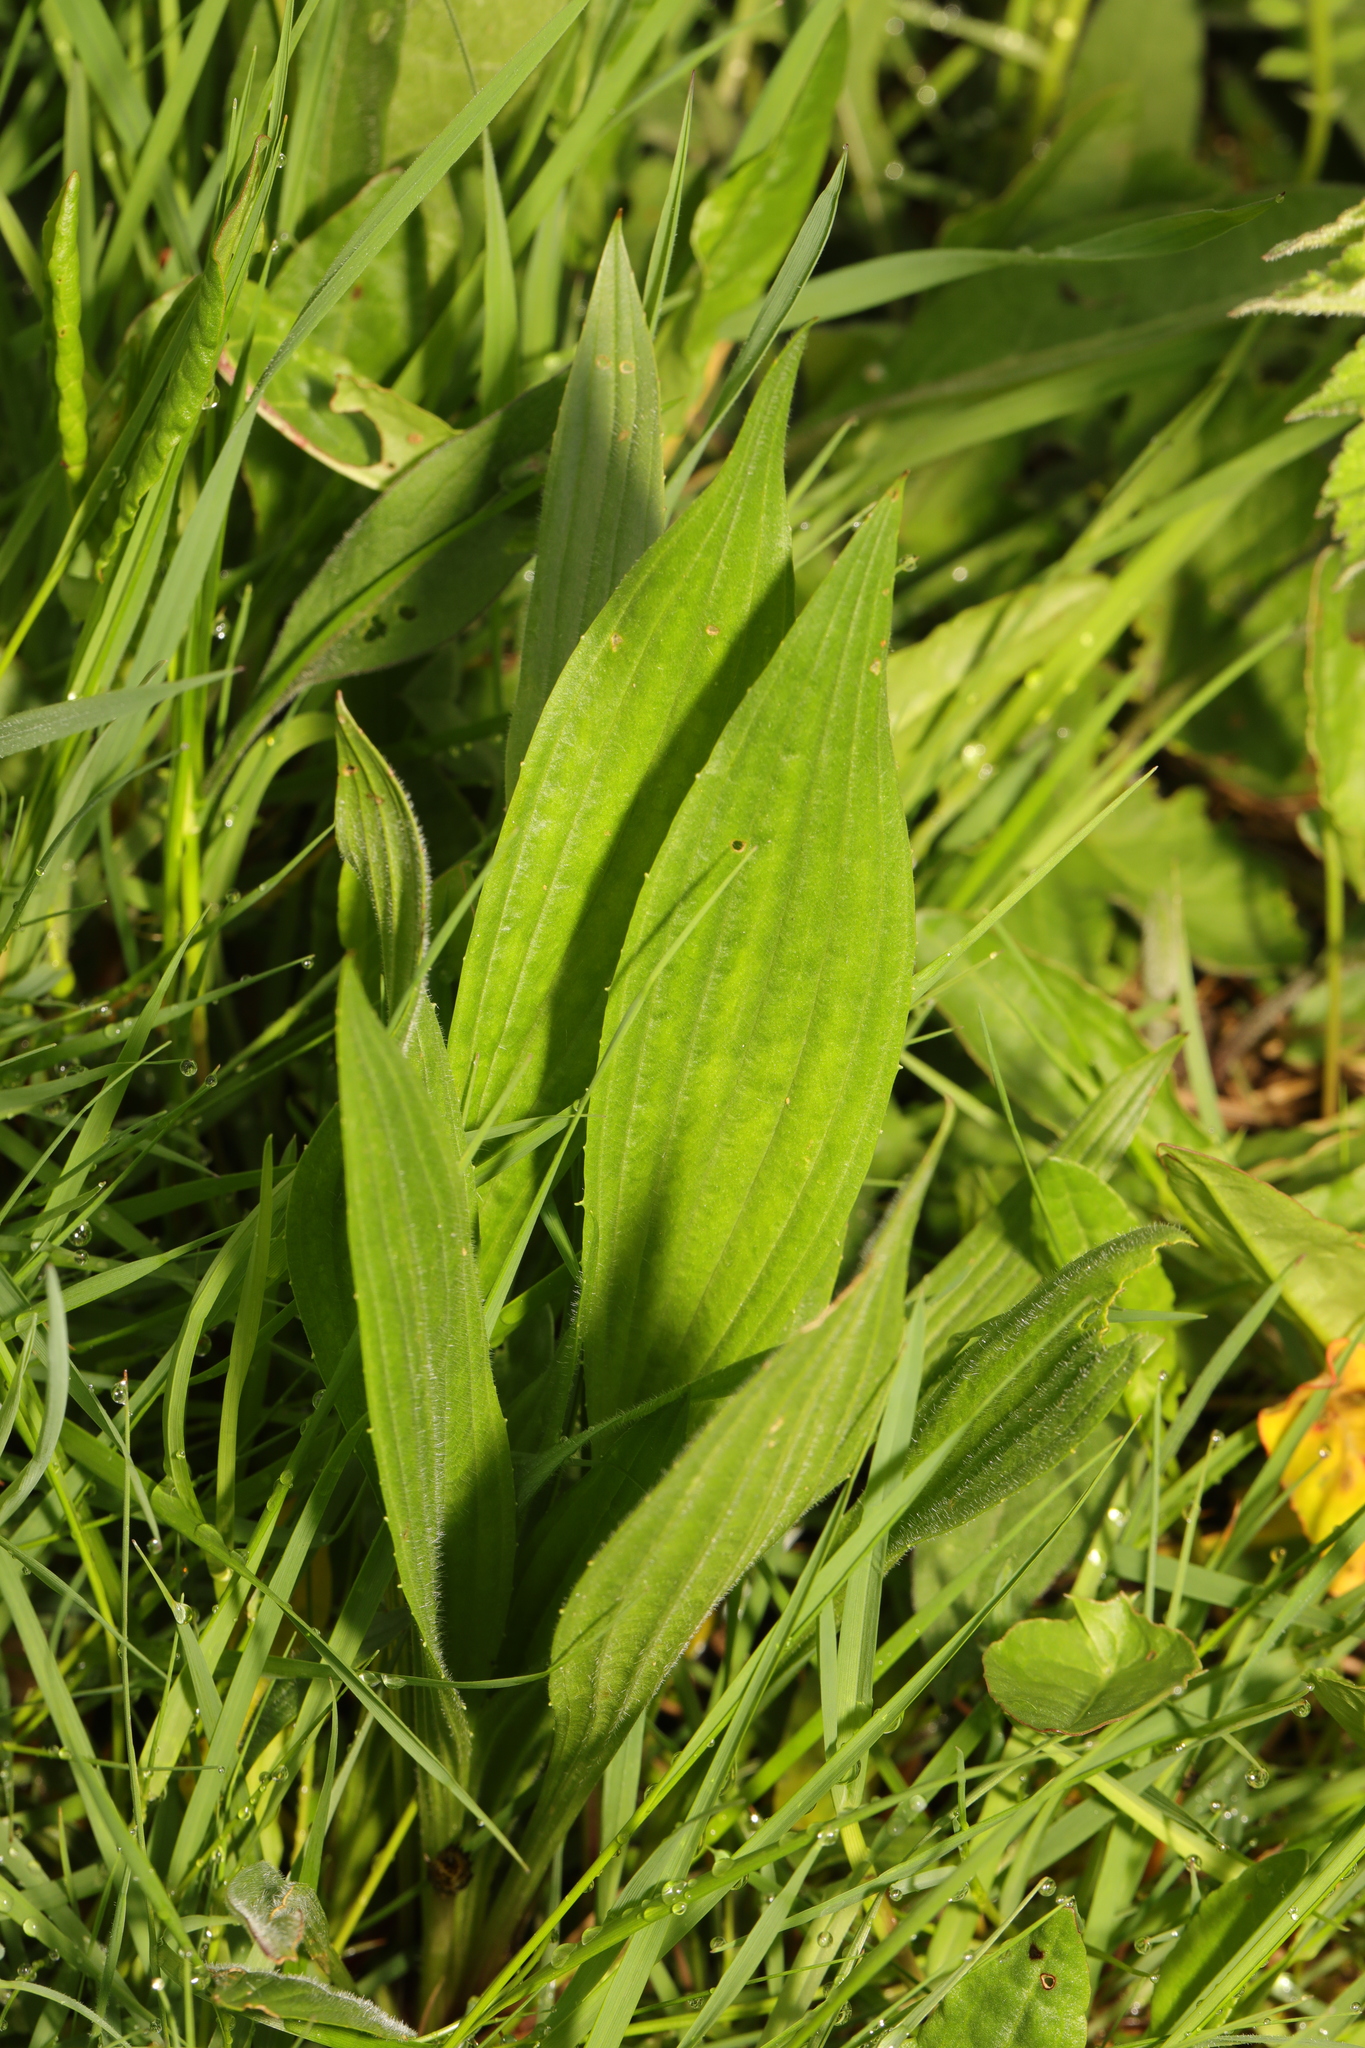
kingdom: Plantae
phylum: Tracheophyta
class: Magnoliopsida
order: Lamiales
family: Plantaginaceae
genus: Plantago
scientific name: Plantago lanceolata
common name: Ribwort plantain
